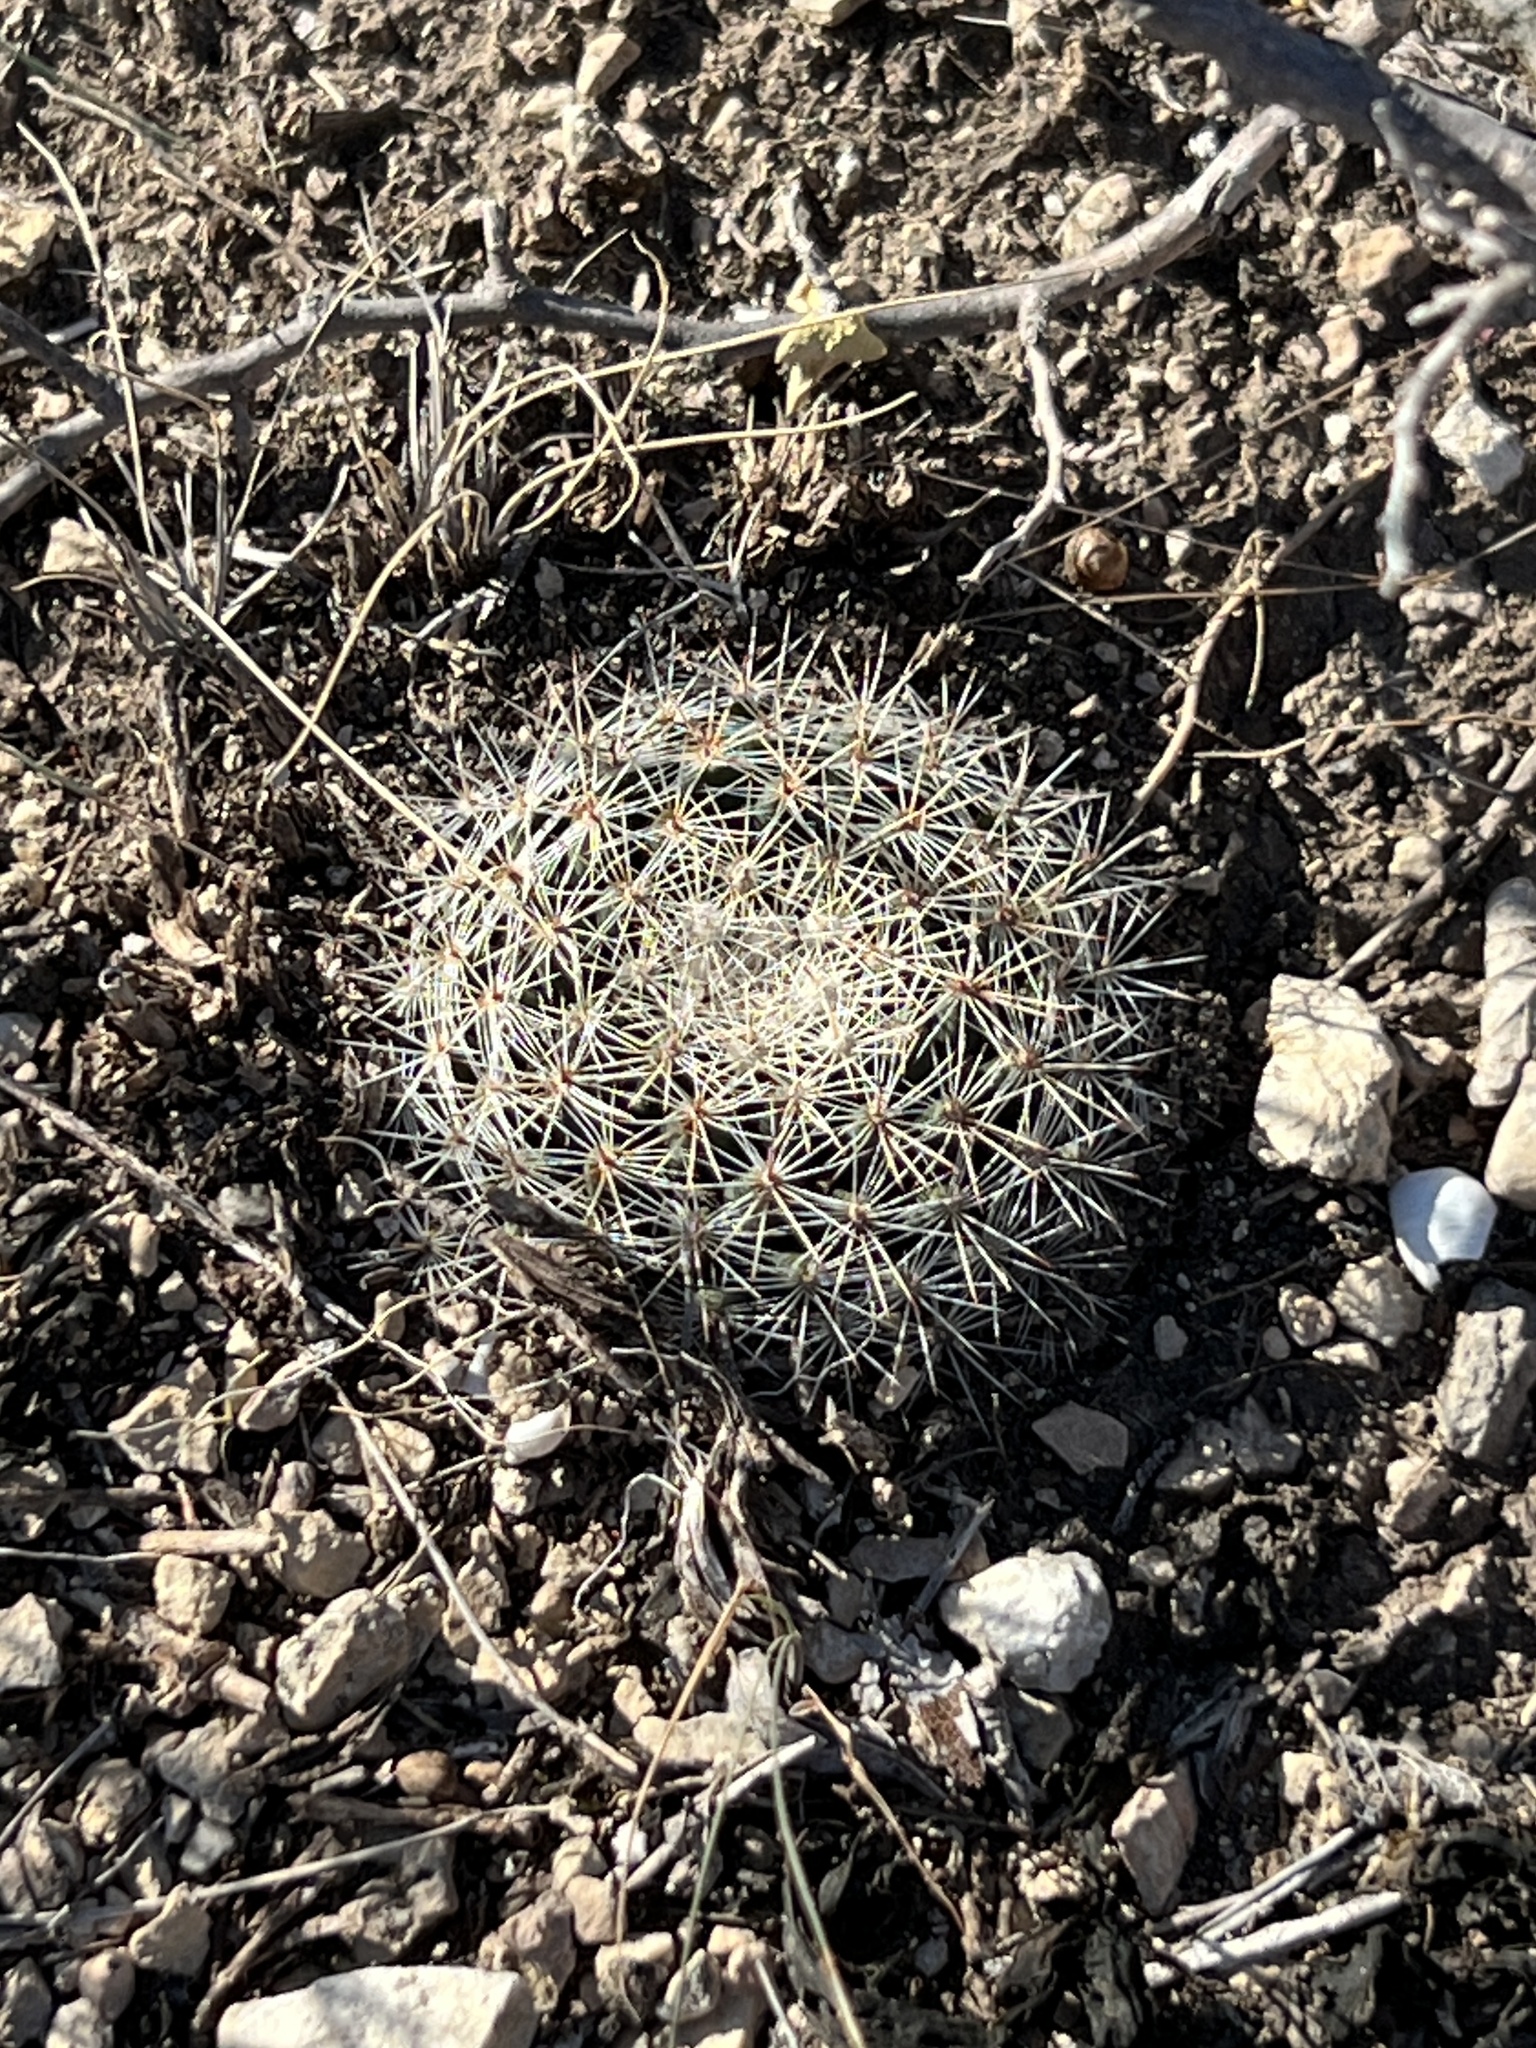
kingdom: Plantae
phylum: Tracheophyta
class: Magnoliopsida
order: Caryophyllales
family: Cactaceae
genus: Mammillaria
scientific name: Mammillaria heyderi
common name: Little nipple cactus
